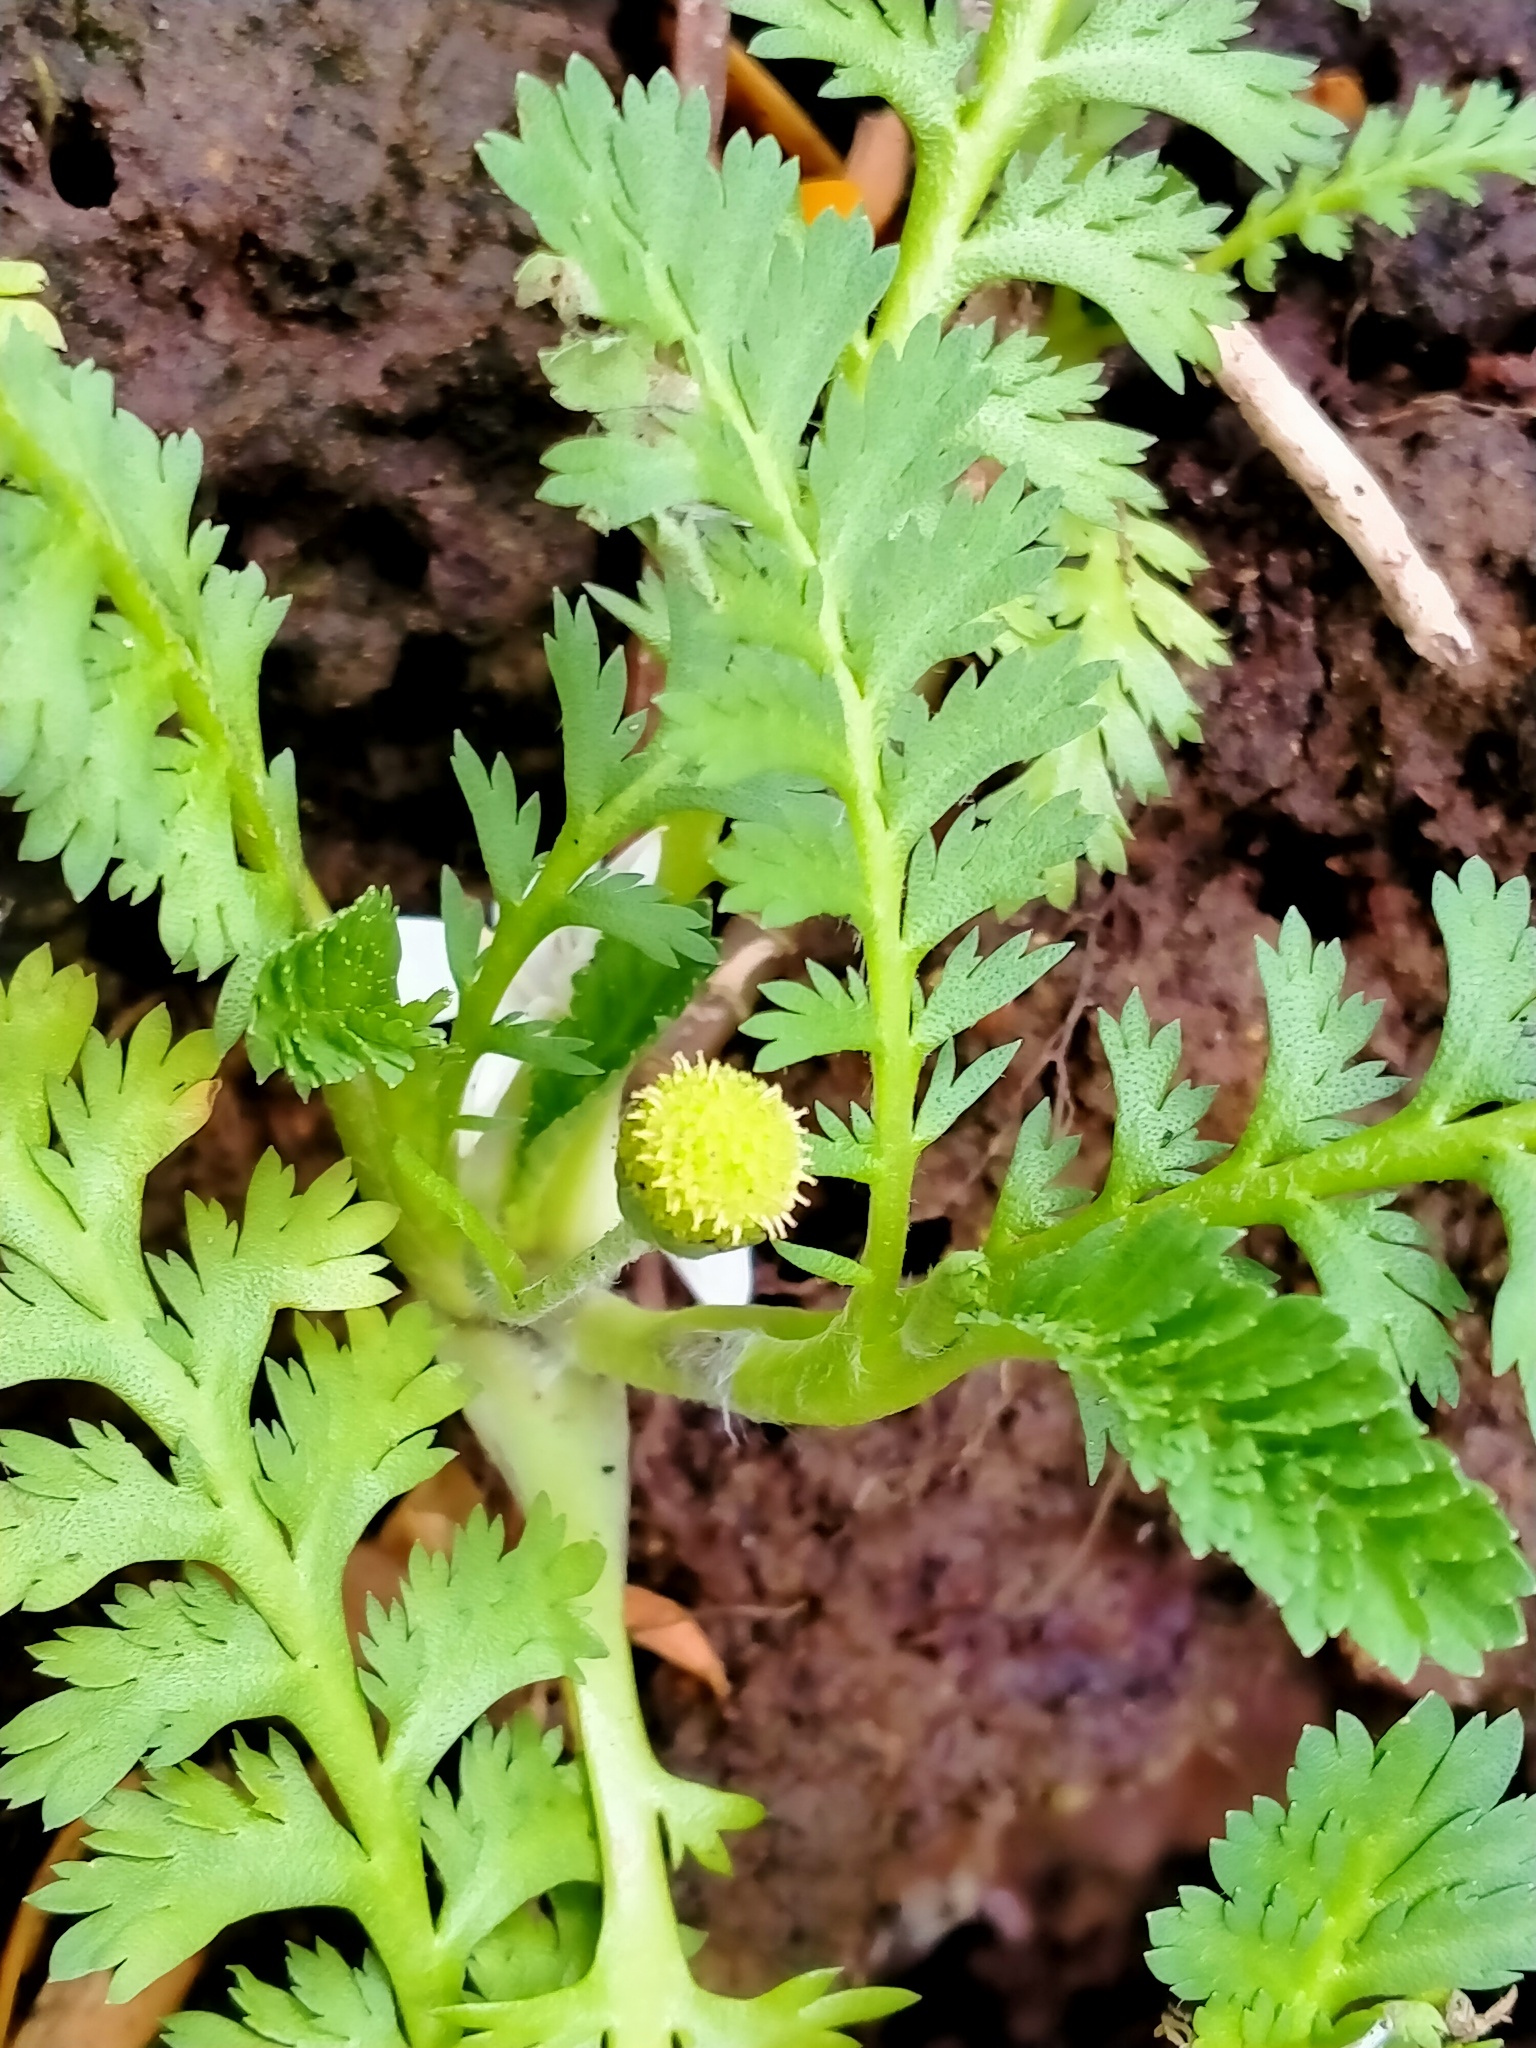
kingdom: Plantae
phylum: Tracheophyta
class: Magnoliopsida
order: Asterales
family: Asteraceae
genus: Leptinella
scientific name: Leptinella potentillina
